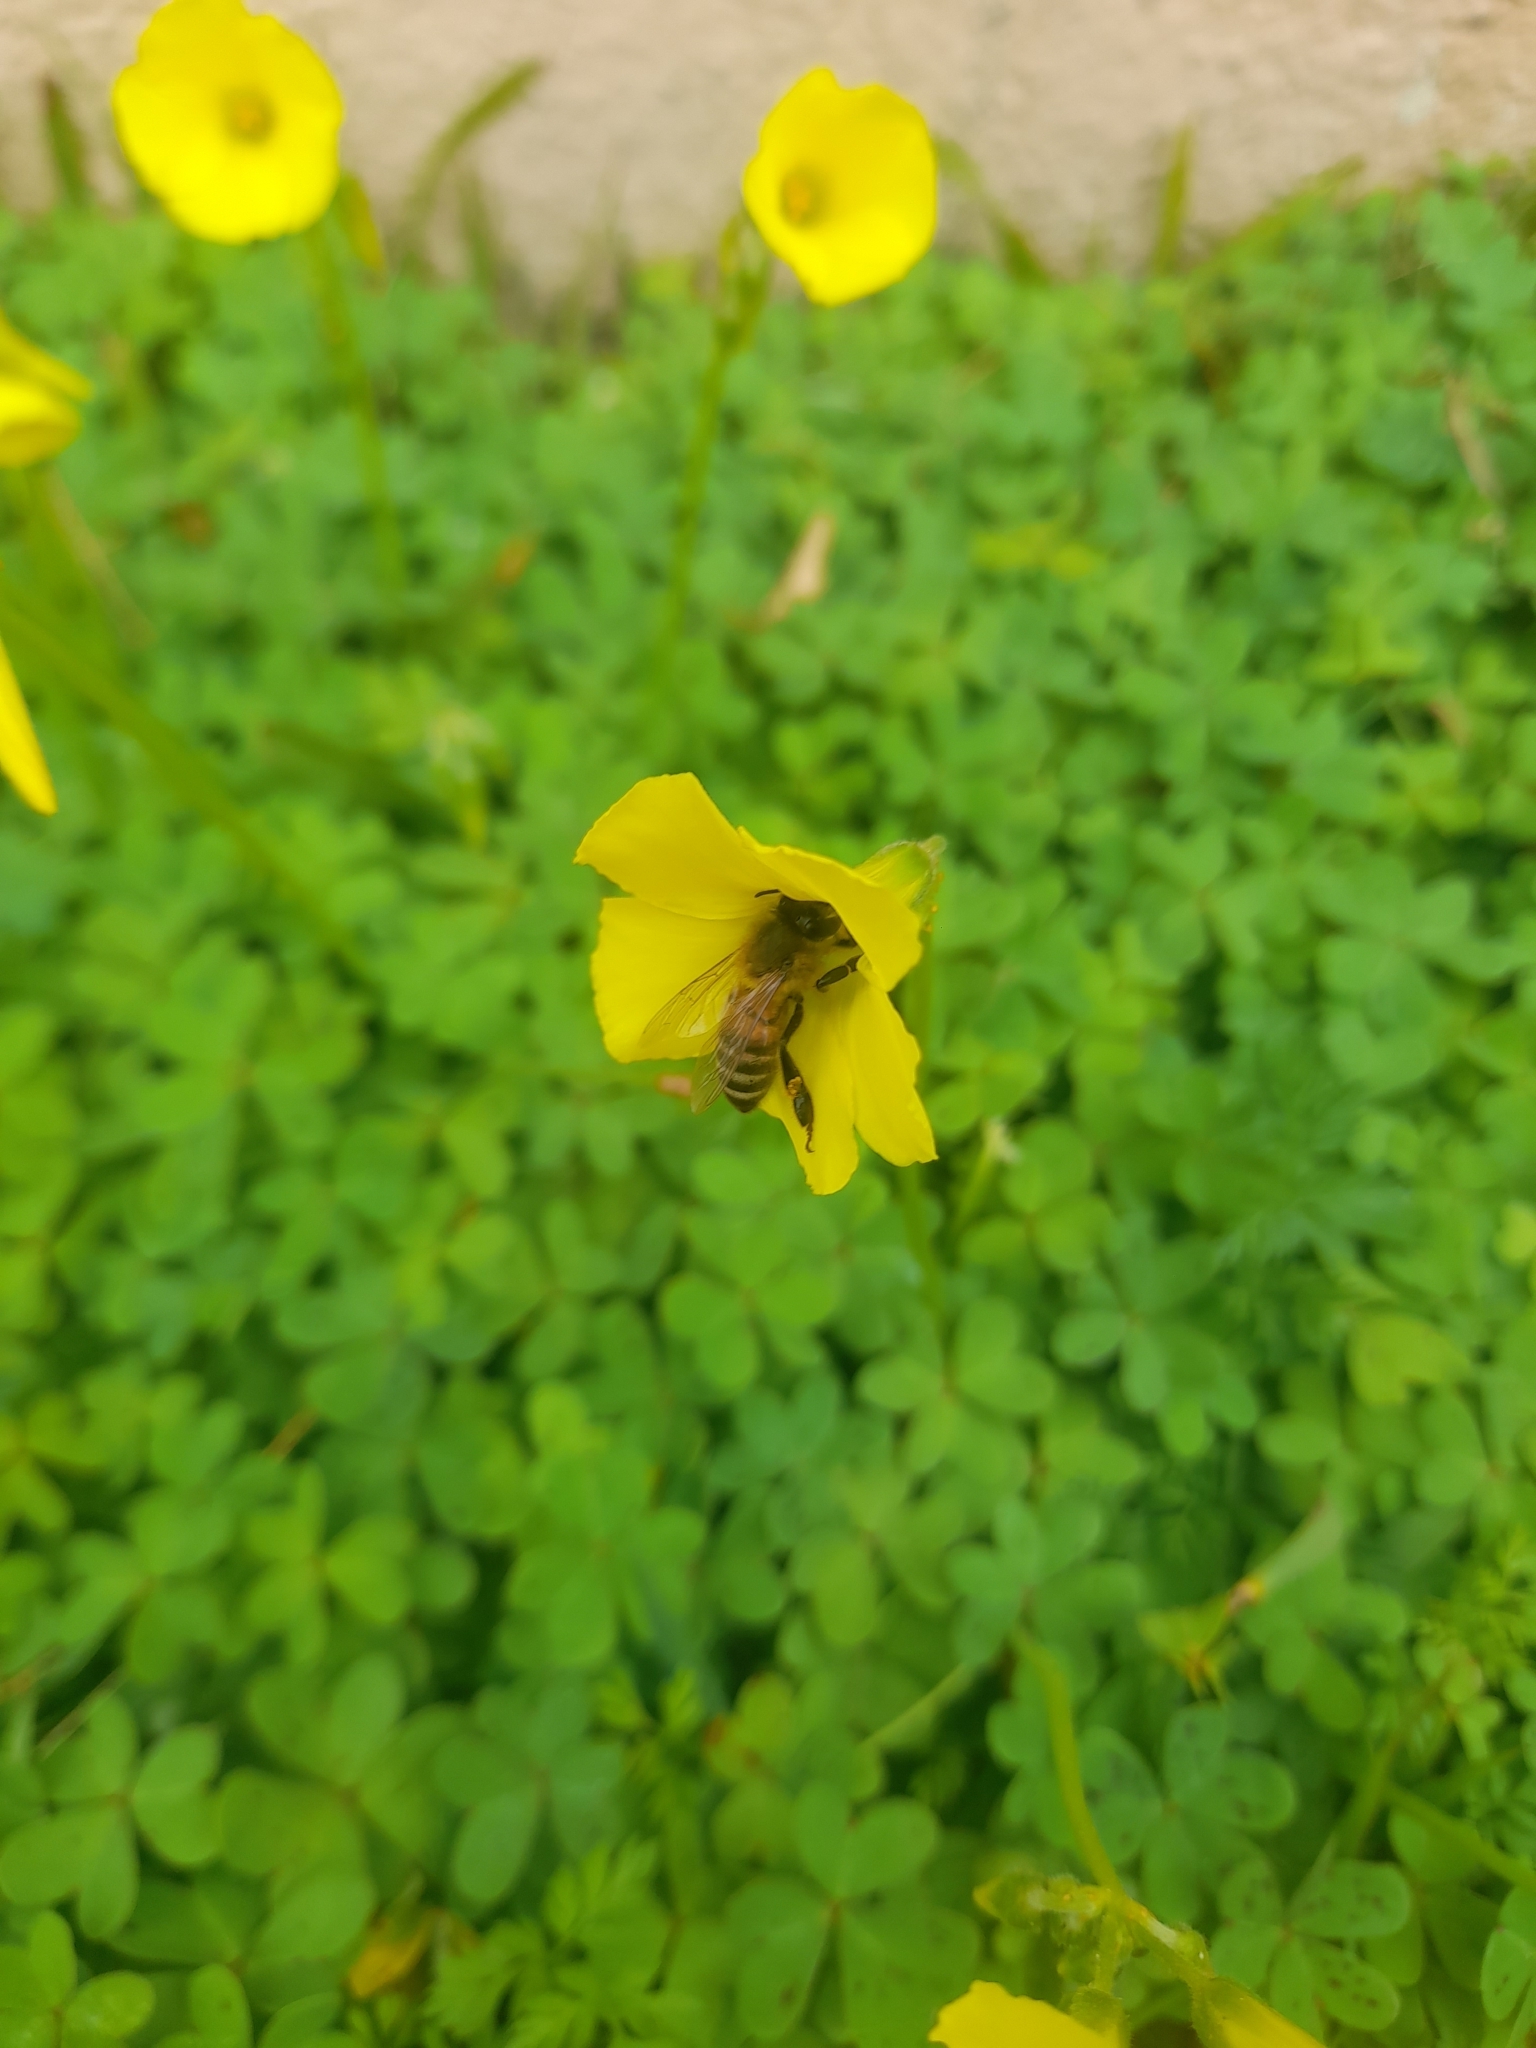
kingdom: Animalia
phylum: Arthropoda
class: Insecta
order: Hymenoptera
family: Apidae
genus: Apis
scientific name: Apis mellifera
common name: Honey bee
